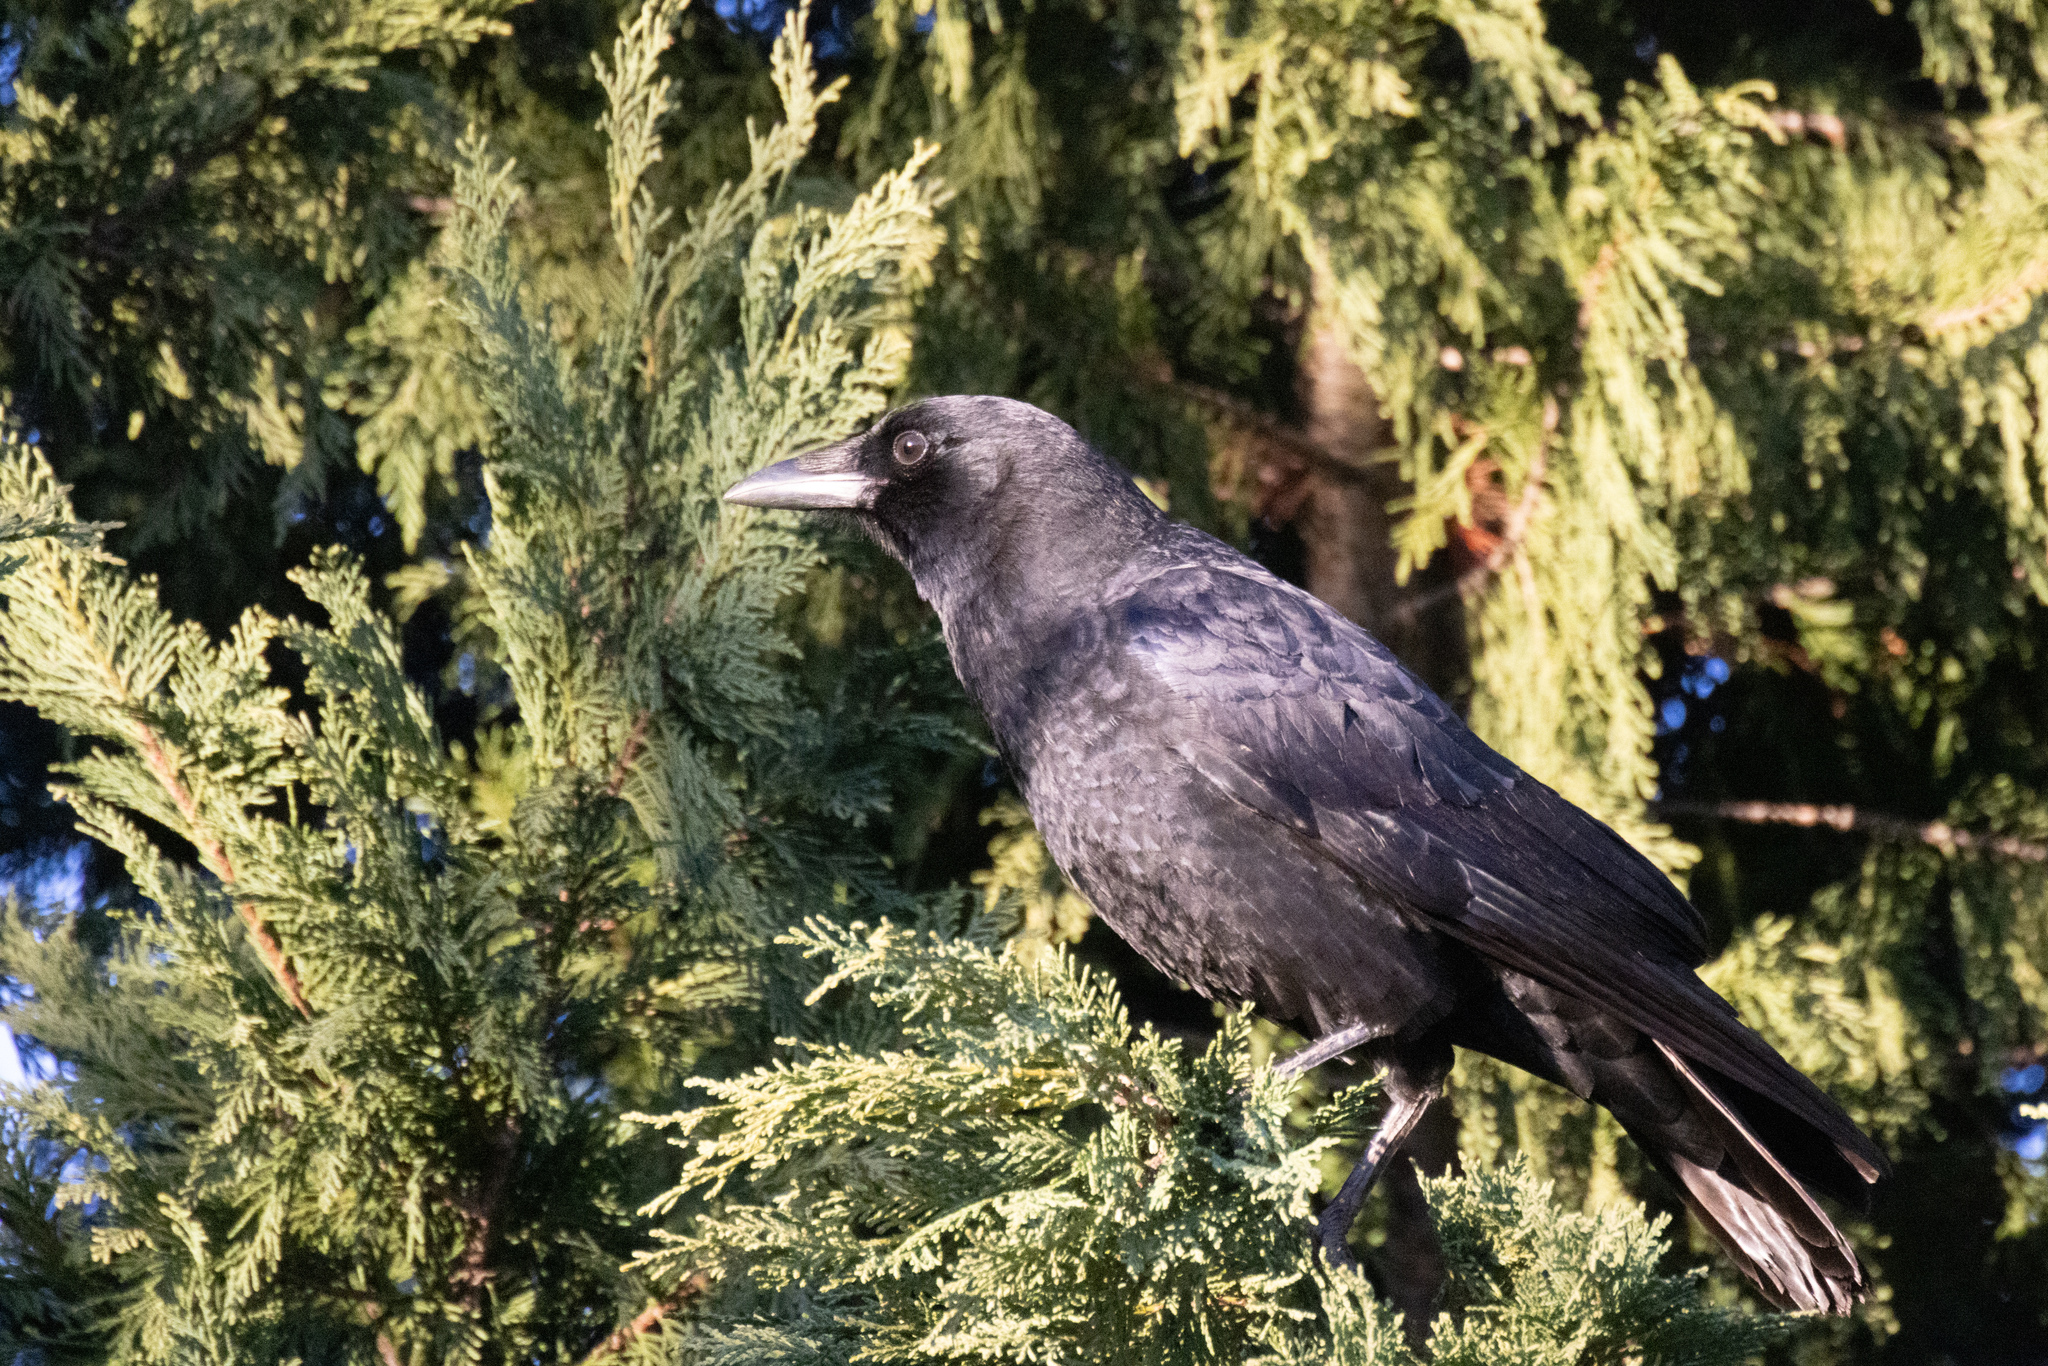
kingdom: Animalia
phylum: Chordata
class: Aves
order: Passeriformes
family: Corvidae
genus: Corvus
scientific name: Corvus brachyrhynchos
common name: American crow
